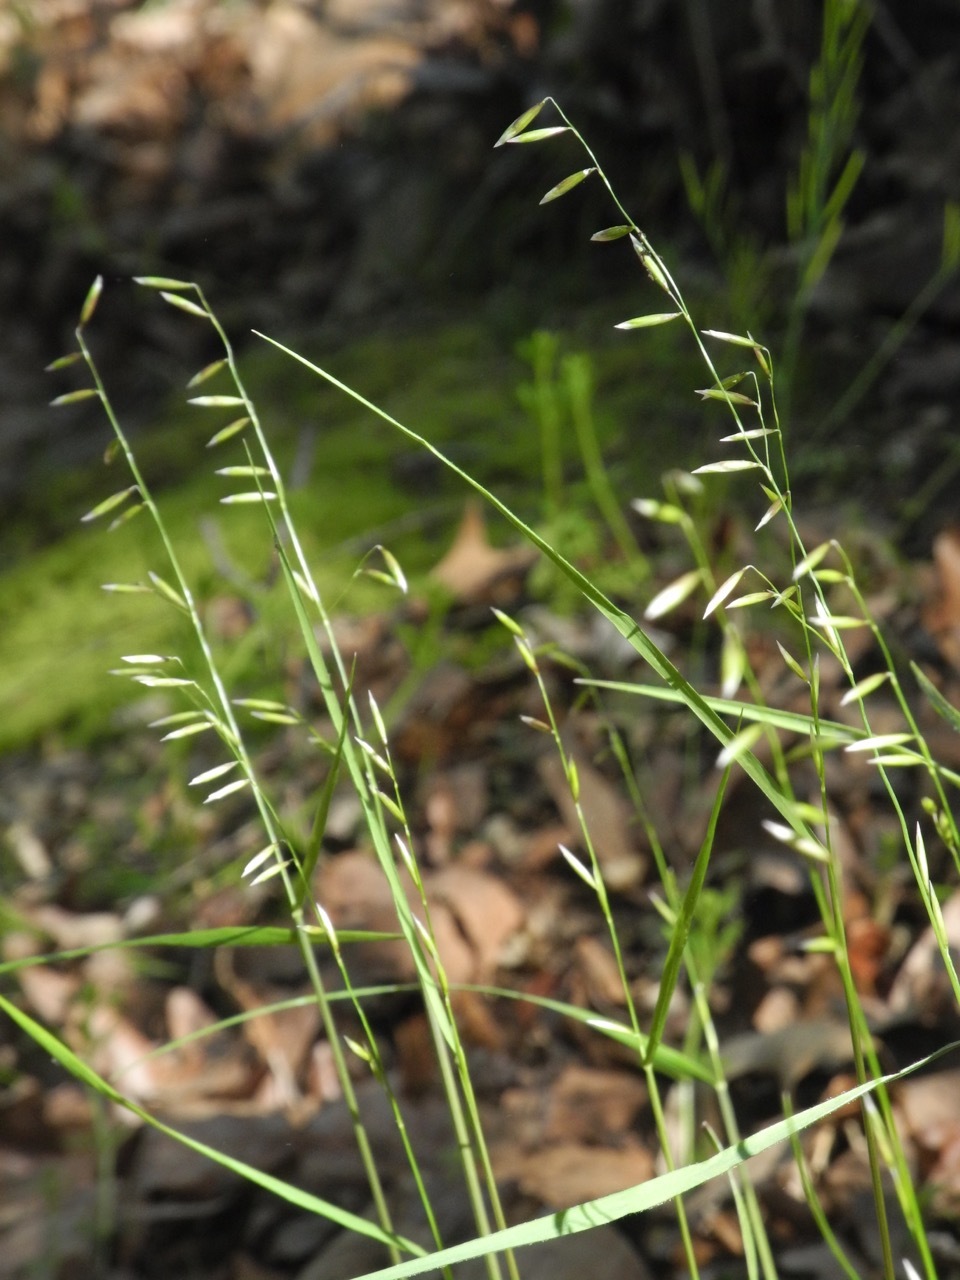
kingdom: Plantae
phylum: Tracheophyta
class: Liliopsida
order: Poales
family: Poaceae
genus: Melica
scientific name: Melica mutica
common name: Two-flower melic
